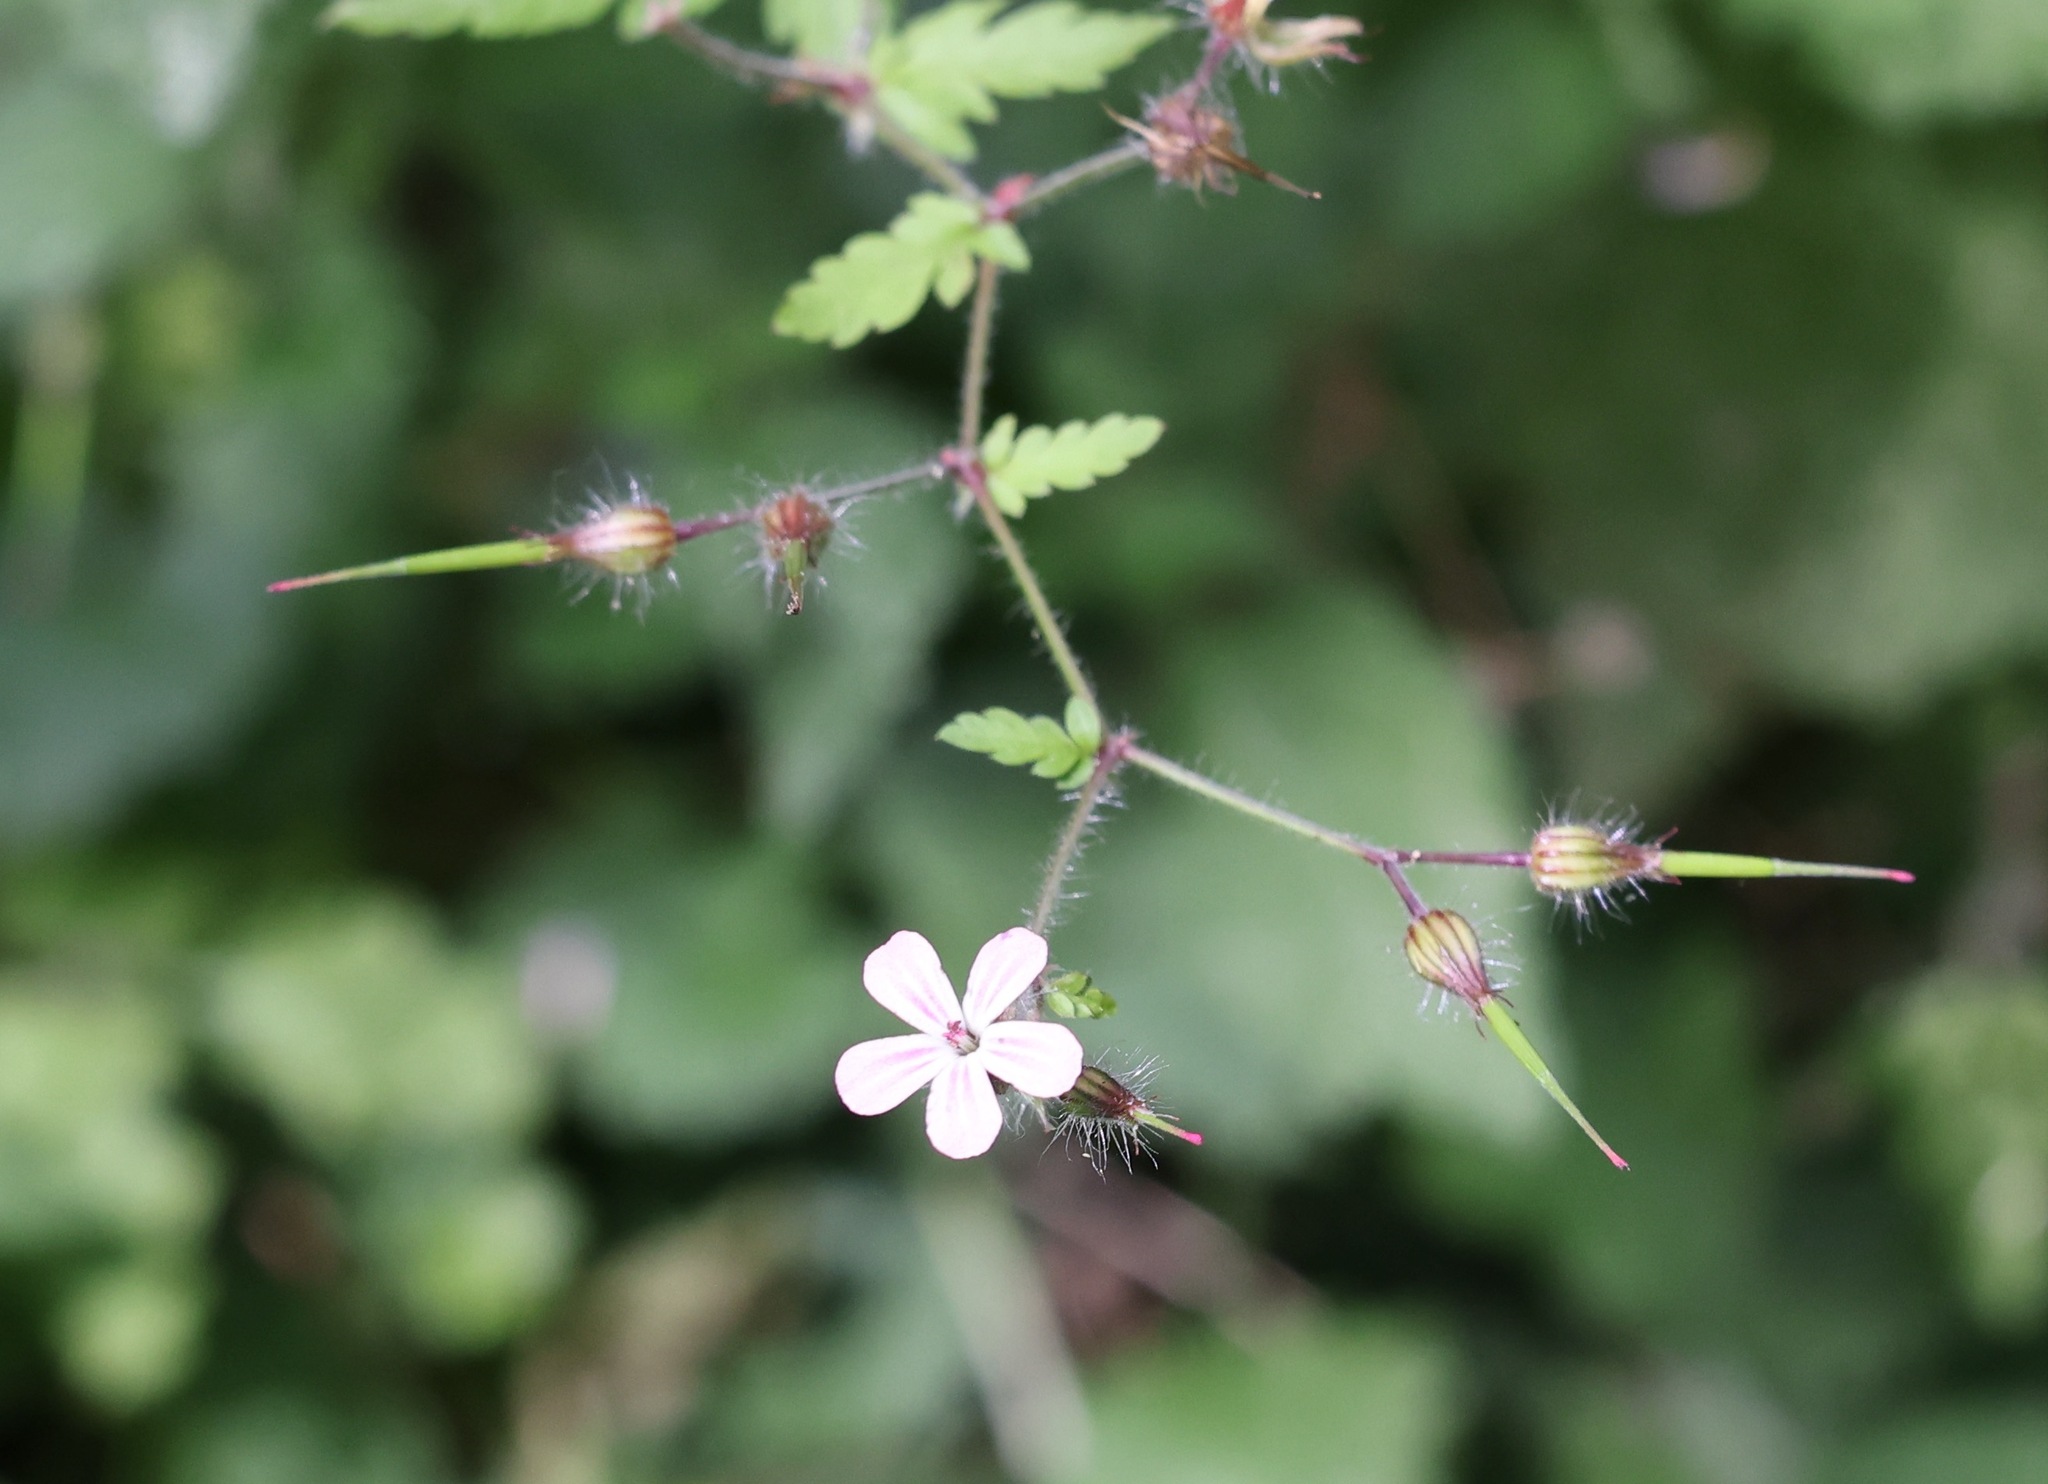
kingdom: Plantae
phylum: Tracheophyta
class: Magnoliopsida
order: Geraniales
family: Geraniaceae
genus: Geranium
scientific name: Geranium robertianum
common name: Herb-robert
